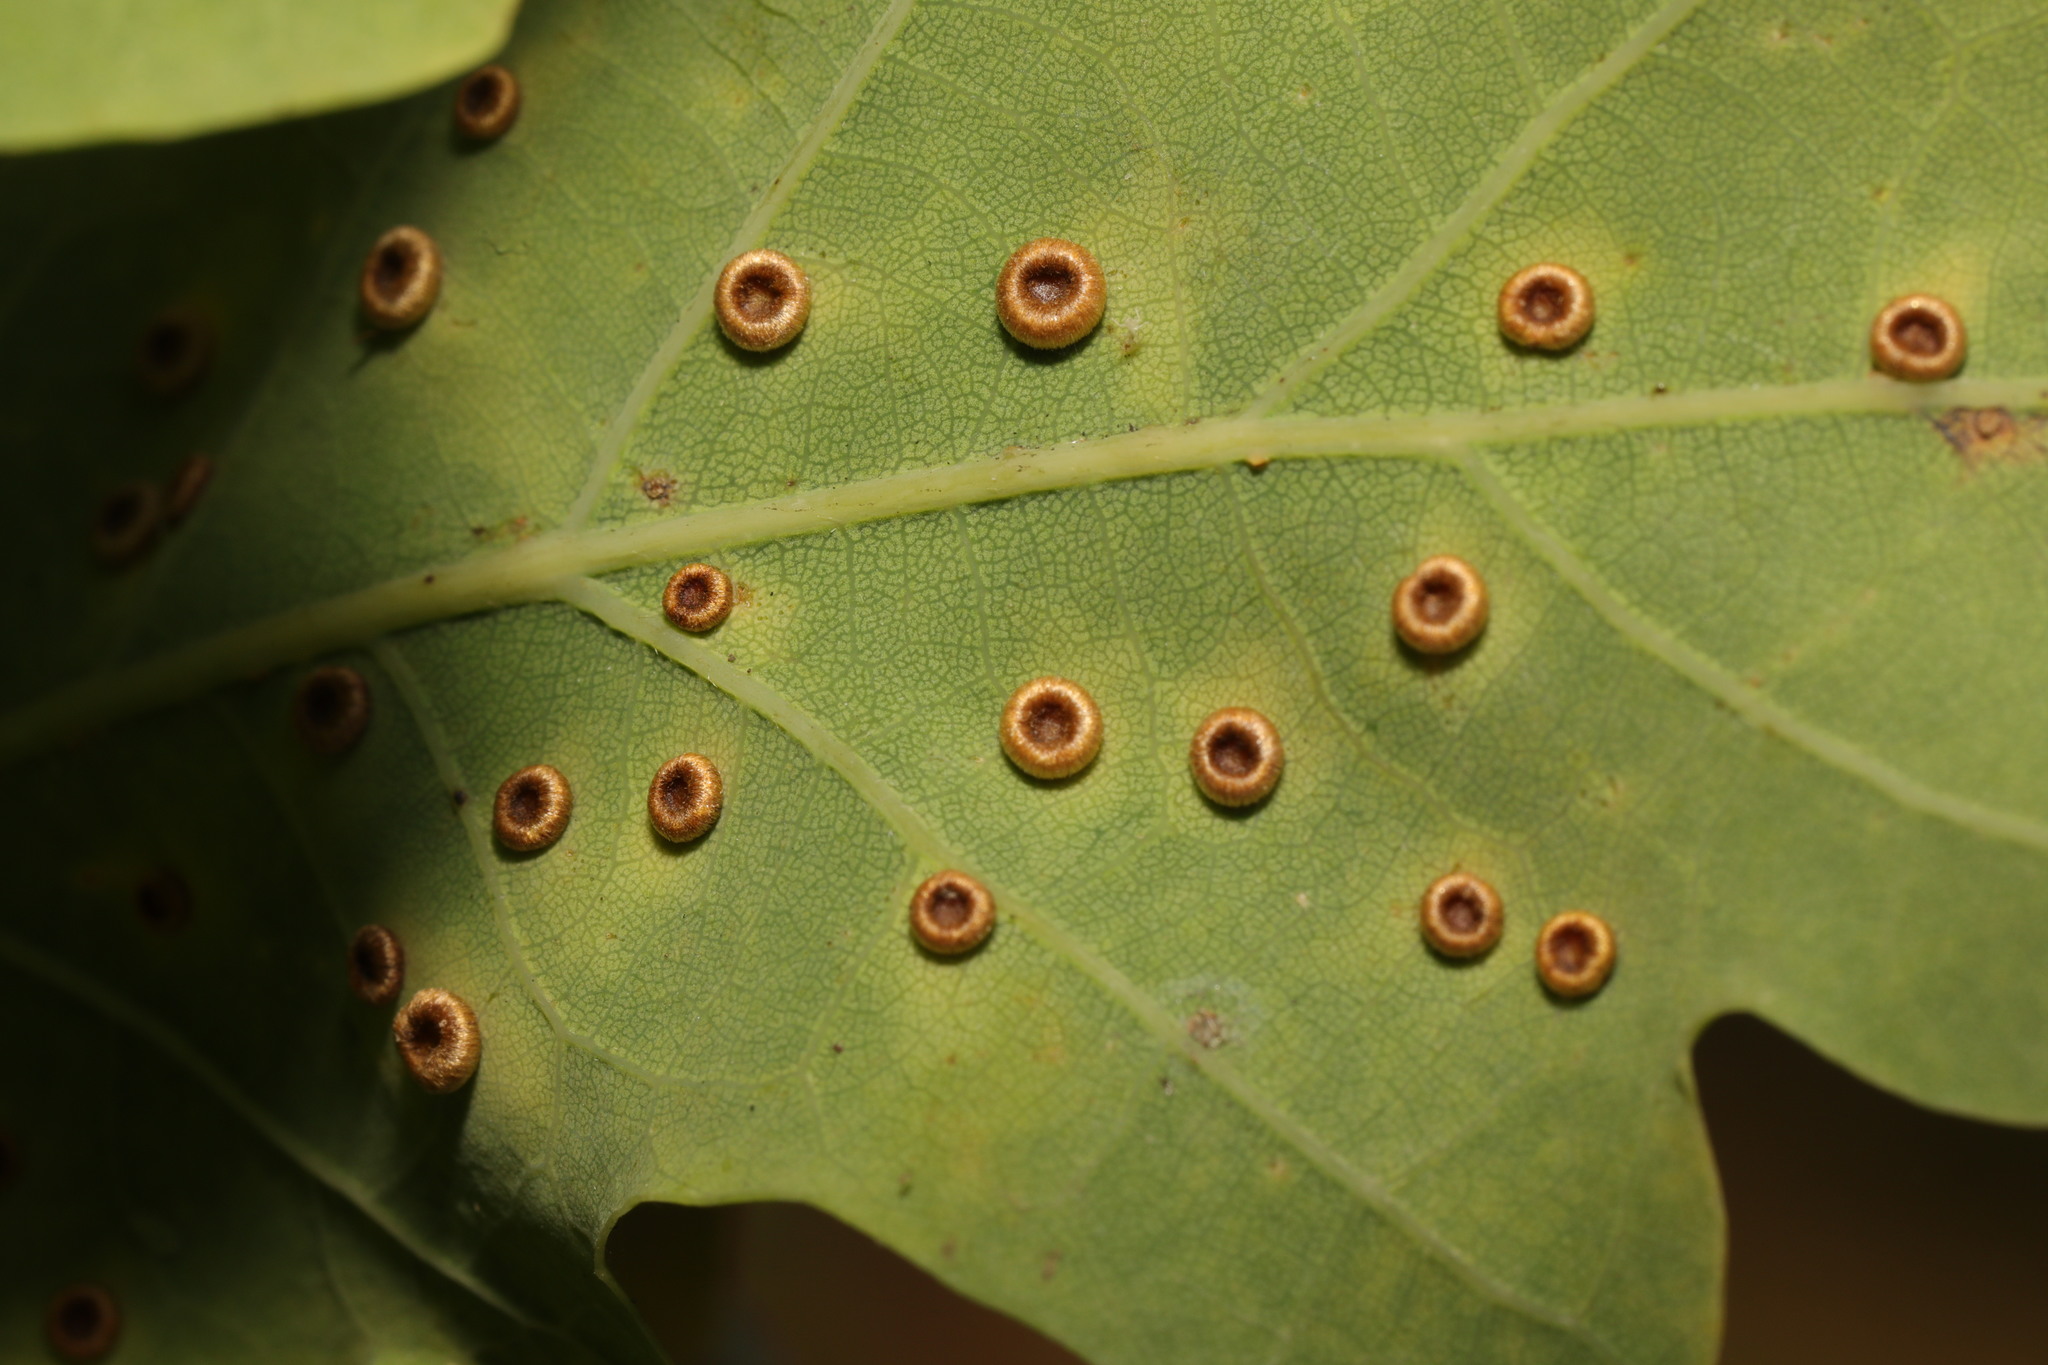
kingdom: Animalia
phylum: Arthropoda
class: Insecta
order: Hymenoptera
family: Cynipidae
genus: Neuroterus
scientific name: Neuroterus numismalis
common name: Silk-button spangle gall
